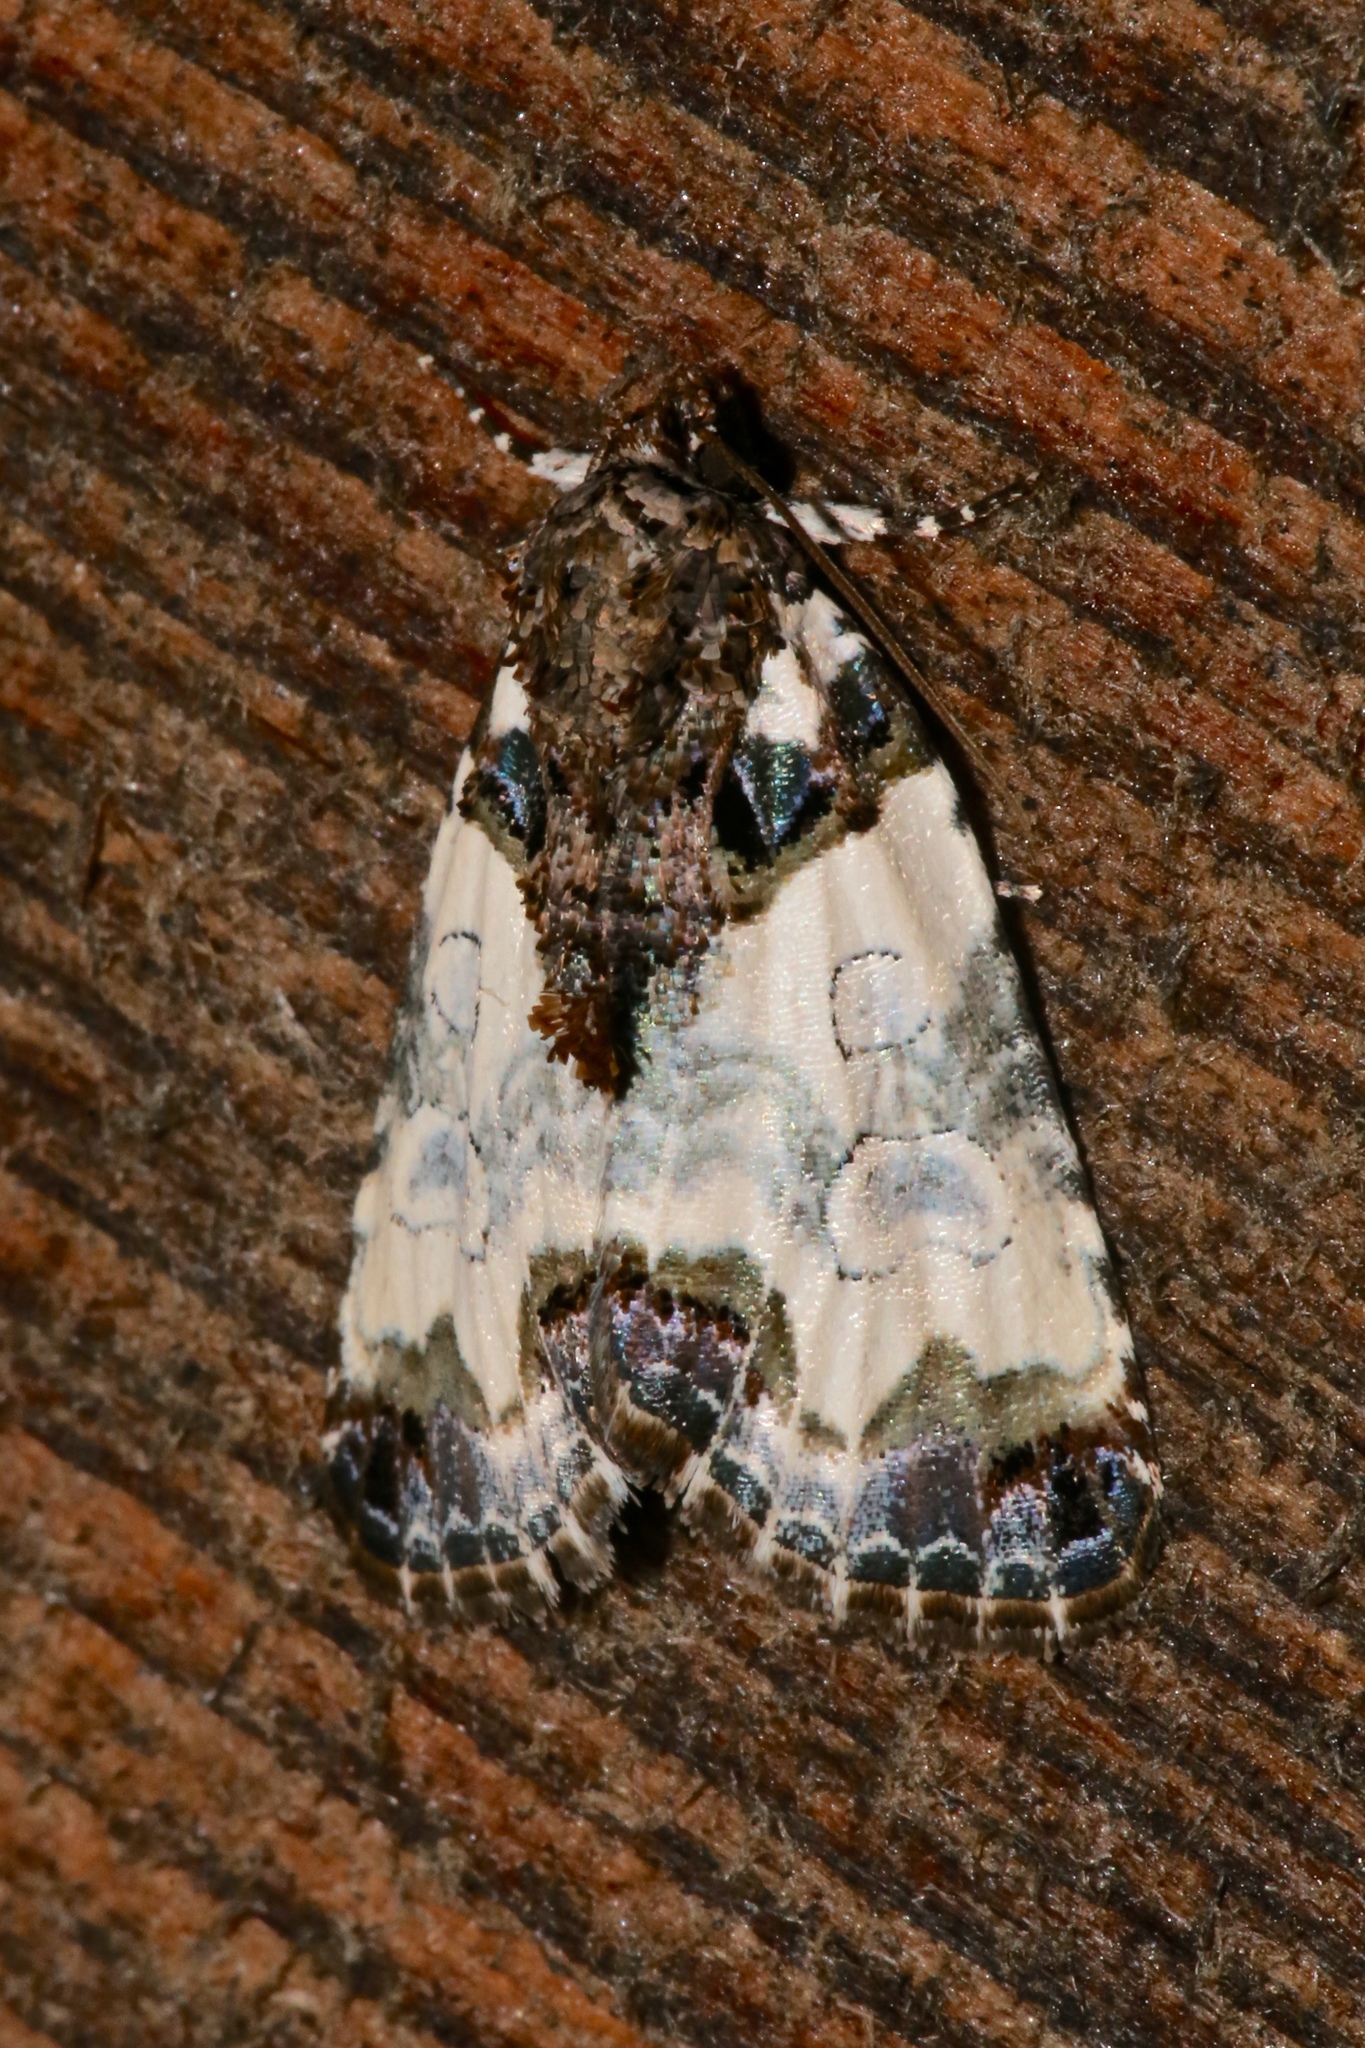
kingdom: Animalia
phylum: Arthropoda
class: Insecta
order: Lepidoptera
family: Noctuidae
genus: Cerma
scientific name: Cerma cerintha
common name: Tufted bird-dropping moth
